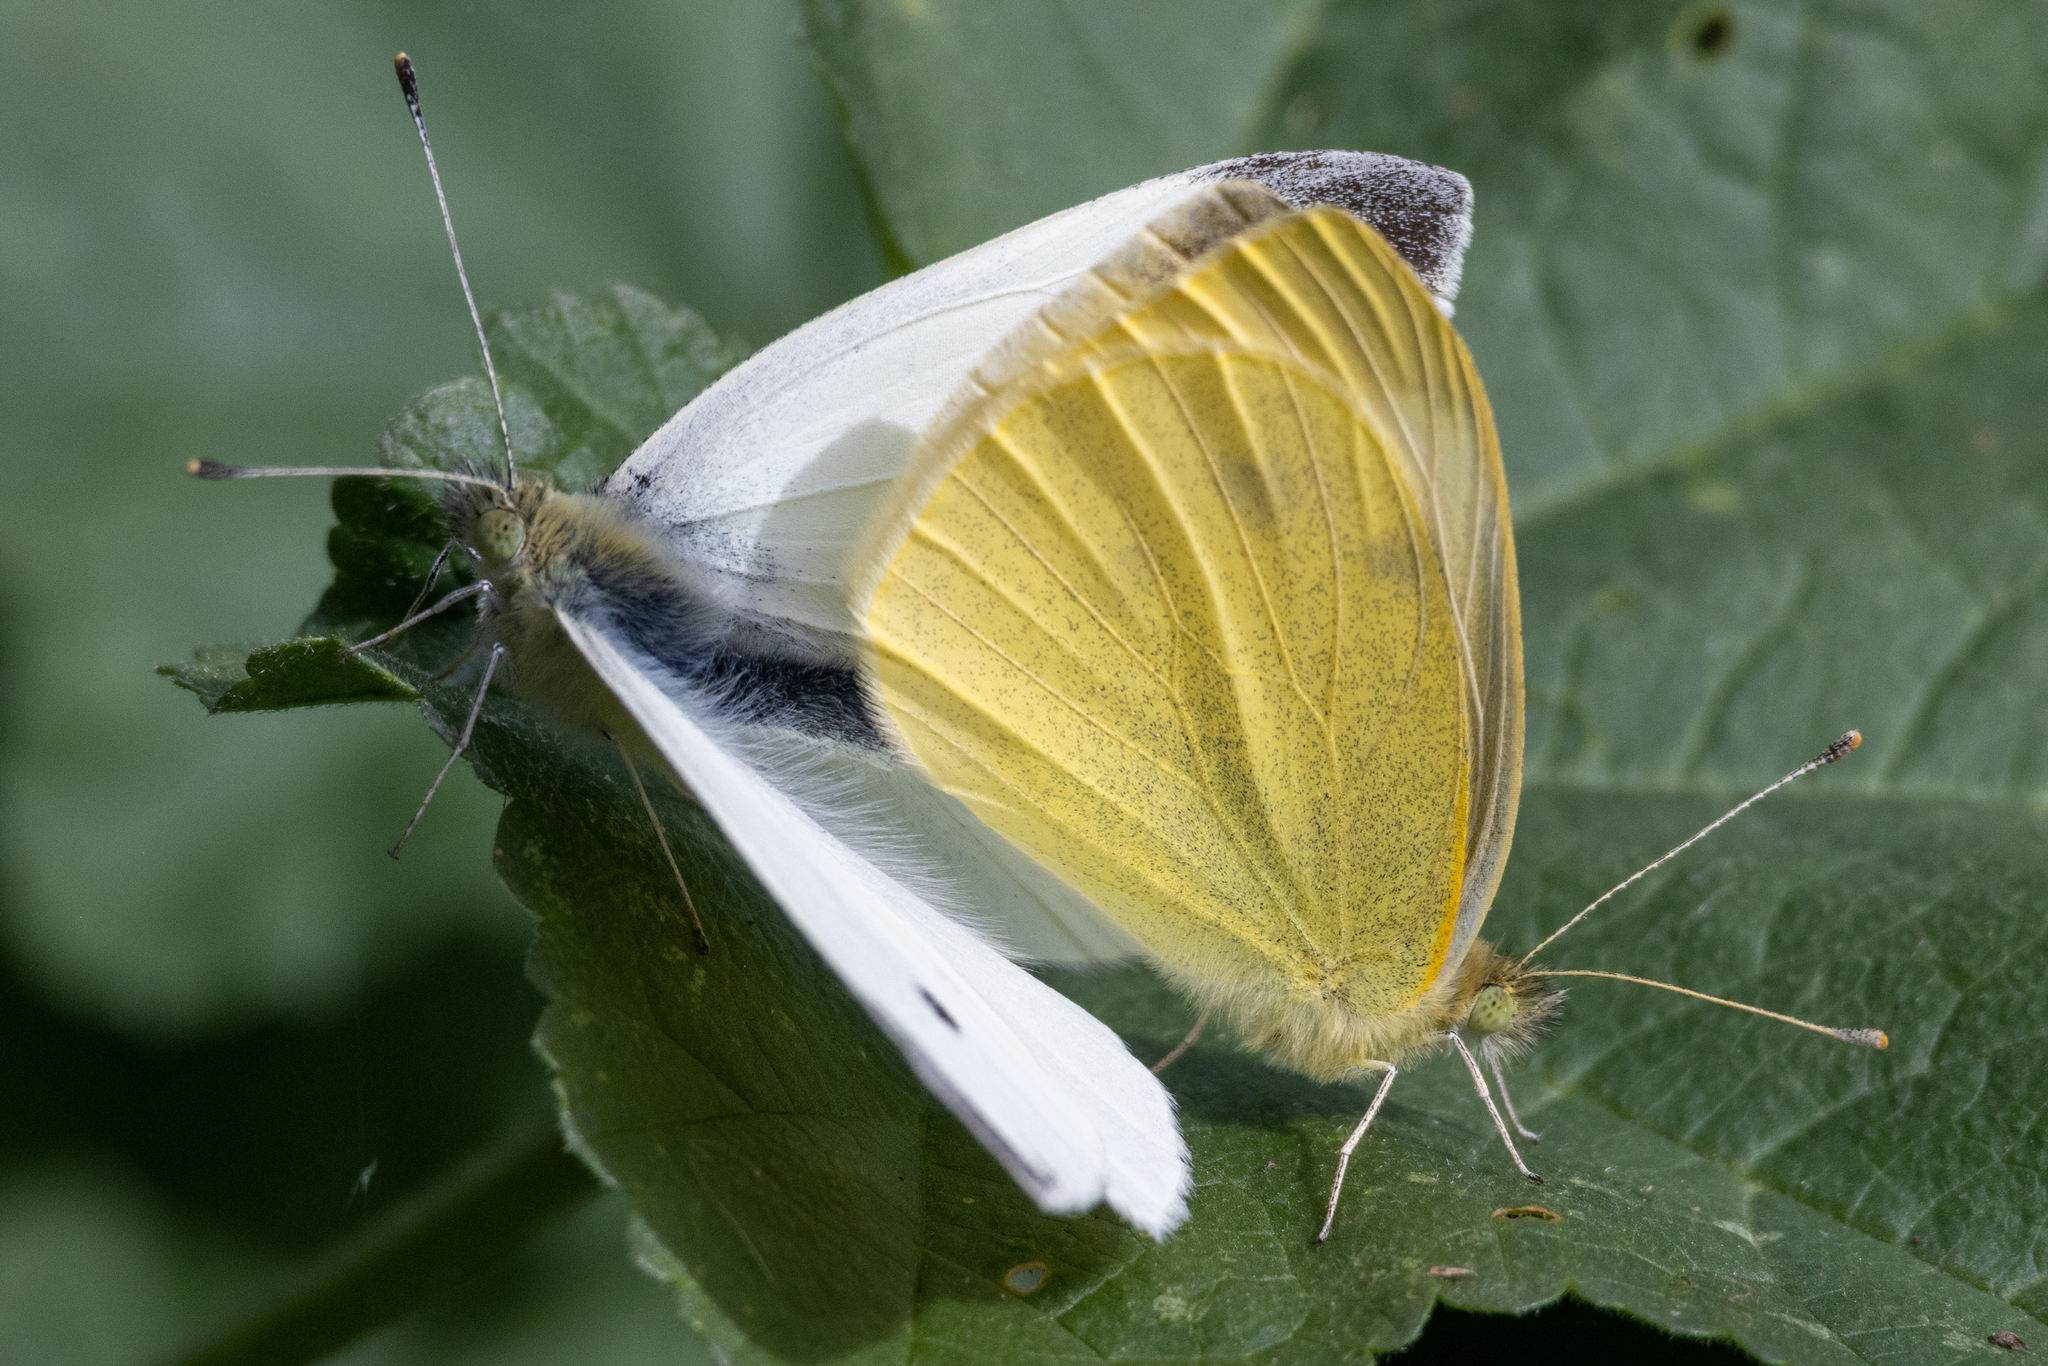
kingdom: Animalia
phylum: Arthropoda
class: Insecta
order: Lepidoptera
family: Pieridae
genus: Pieris
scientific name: Pieris rapae
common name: Small white
